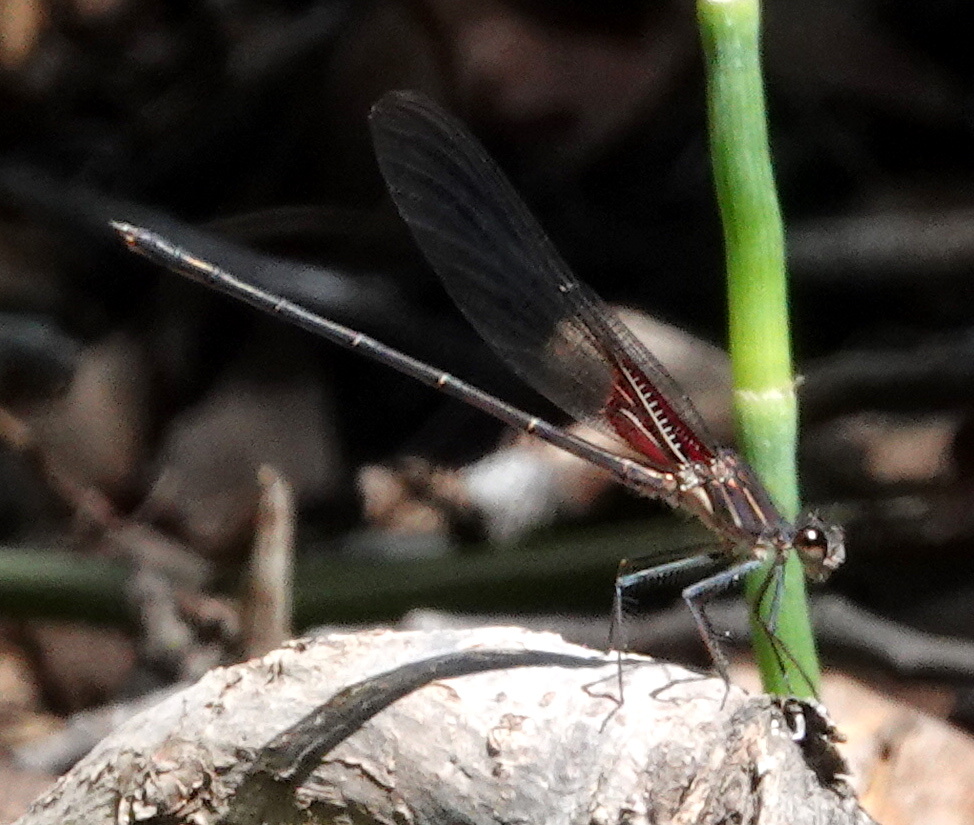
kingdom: Animalia
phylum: Arthropoda
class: Insecta
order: Odonata
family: Calopterygidae
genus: Hetaerina
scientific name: Hetaerina vulnerata
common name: Canyon rubyspot
